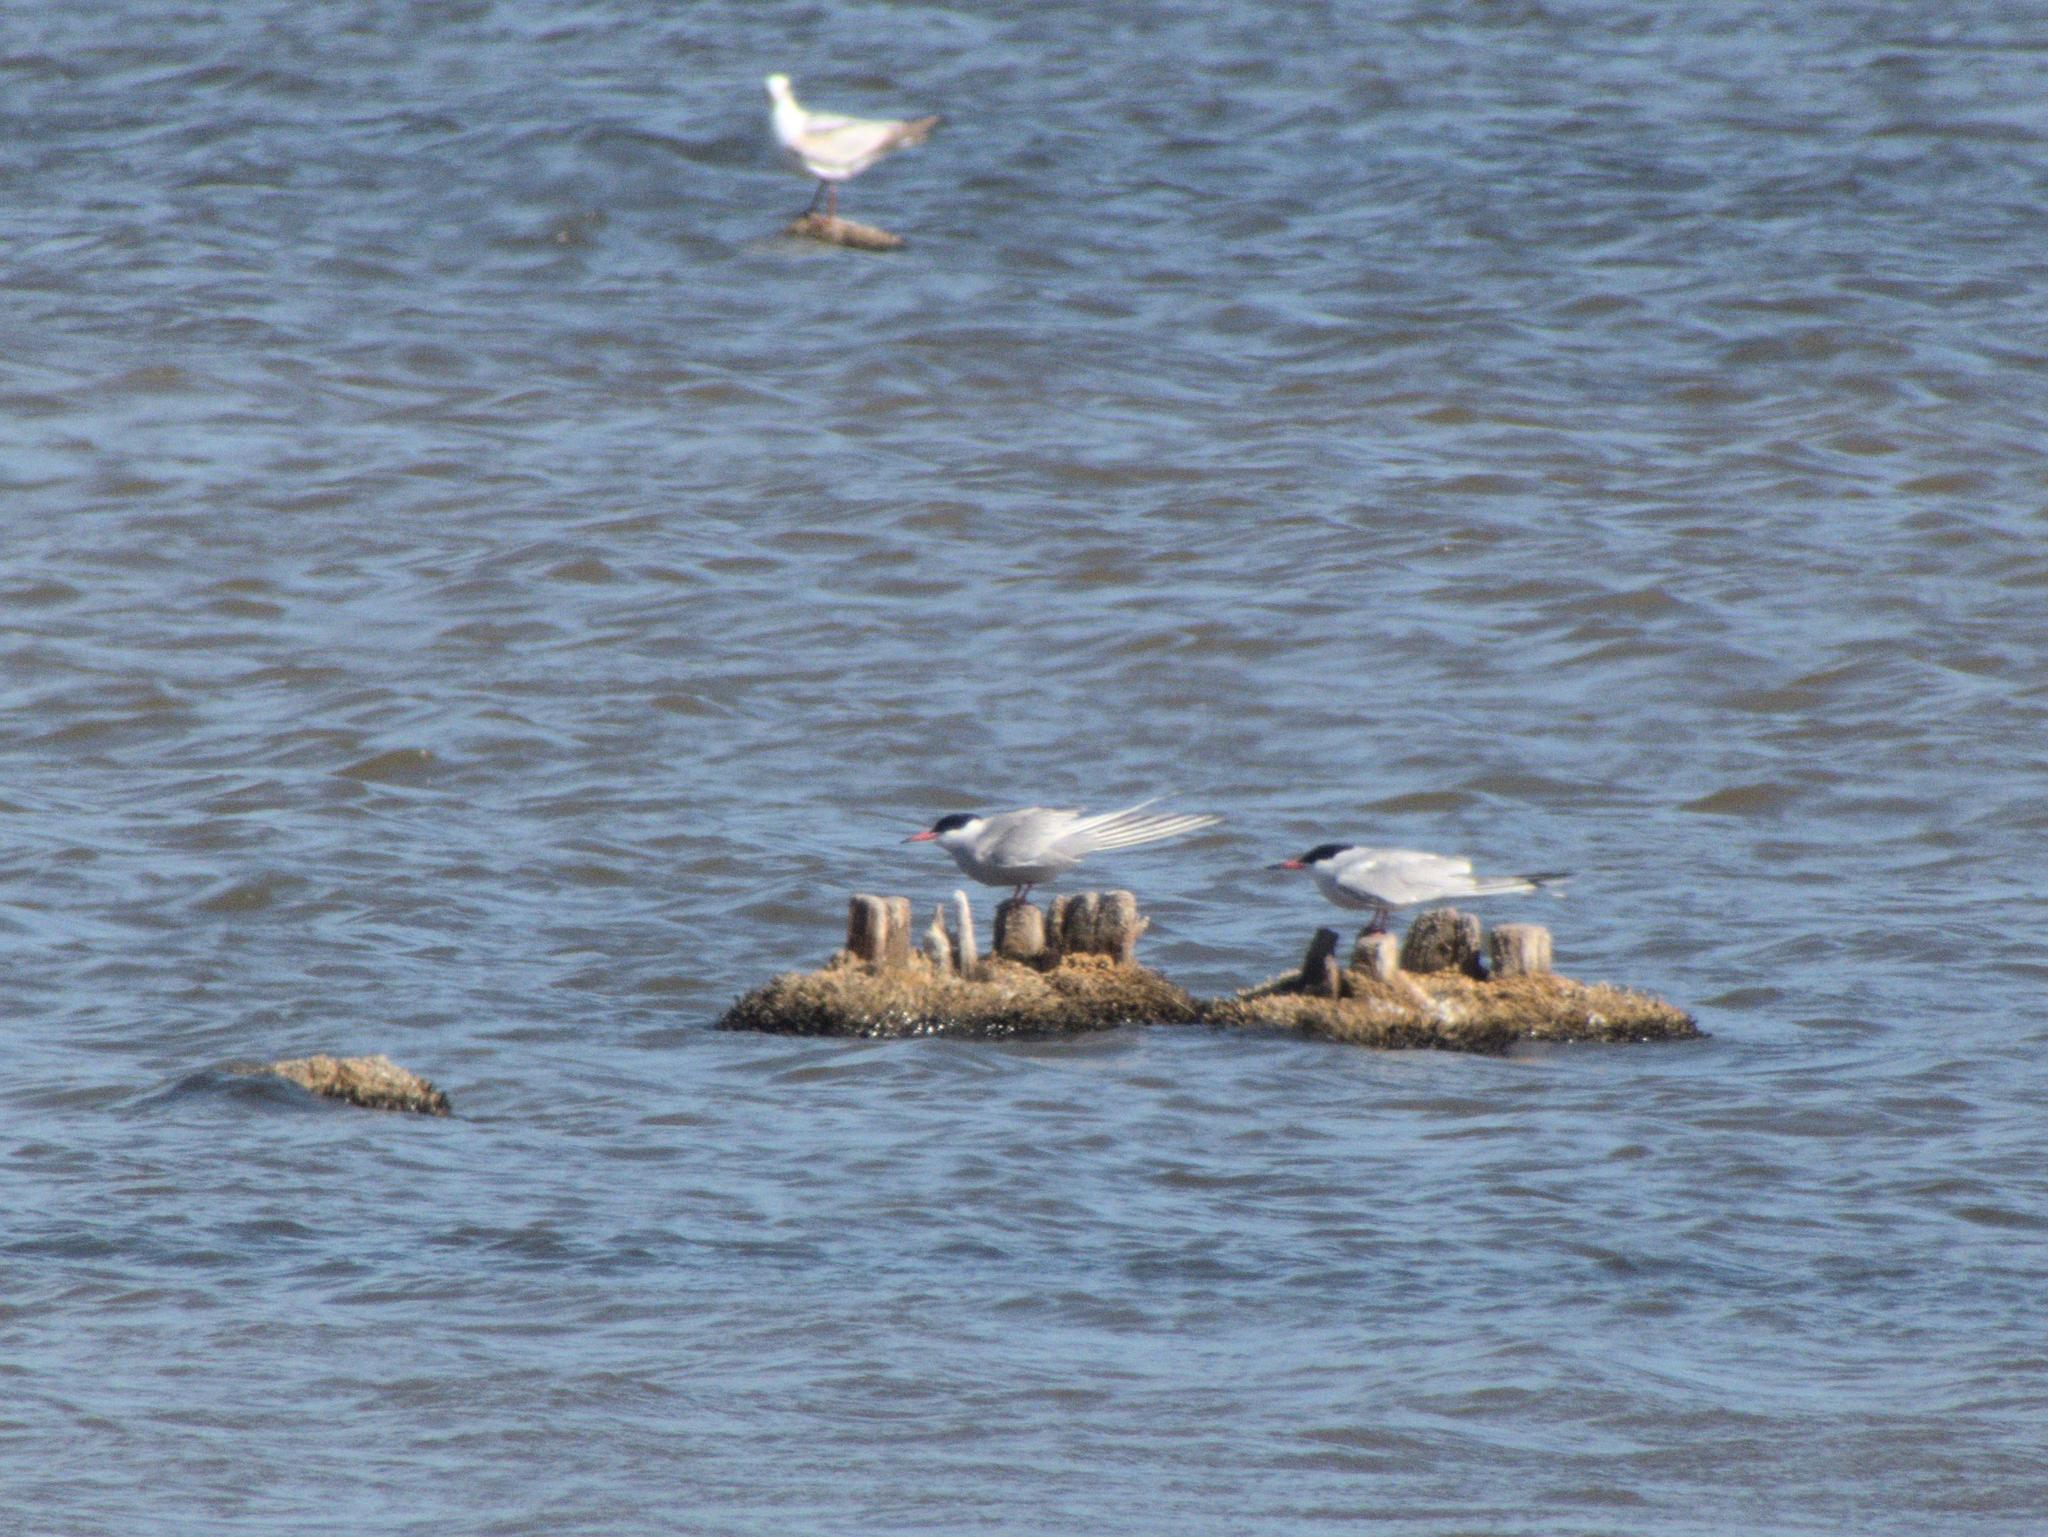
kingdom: Animalia
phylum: Chordata
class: Aves
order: Charadriiformes
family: Laridae
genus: Sterna
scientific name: Sterna hirundo
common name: Common tern
